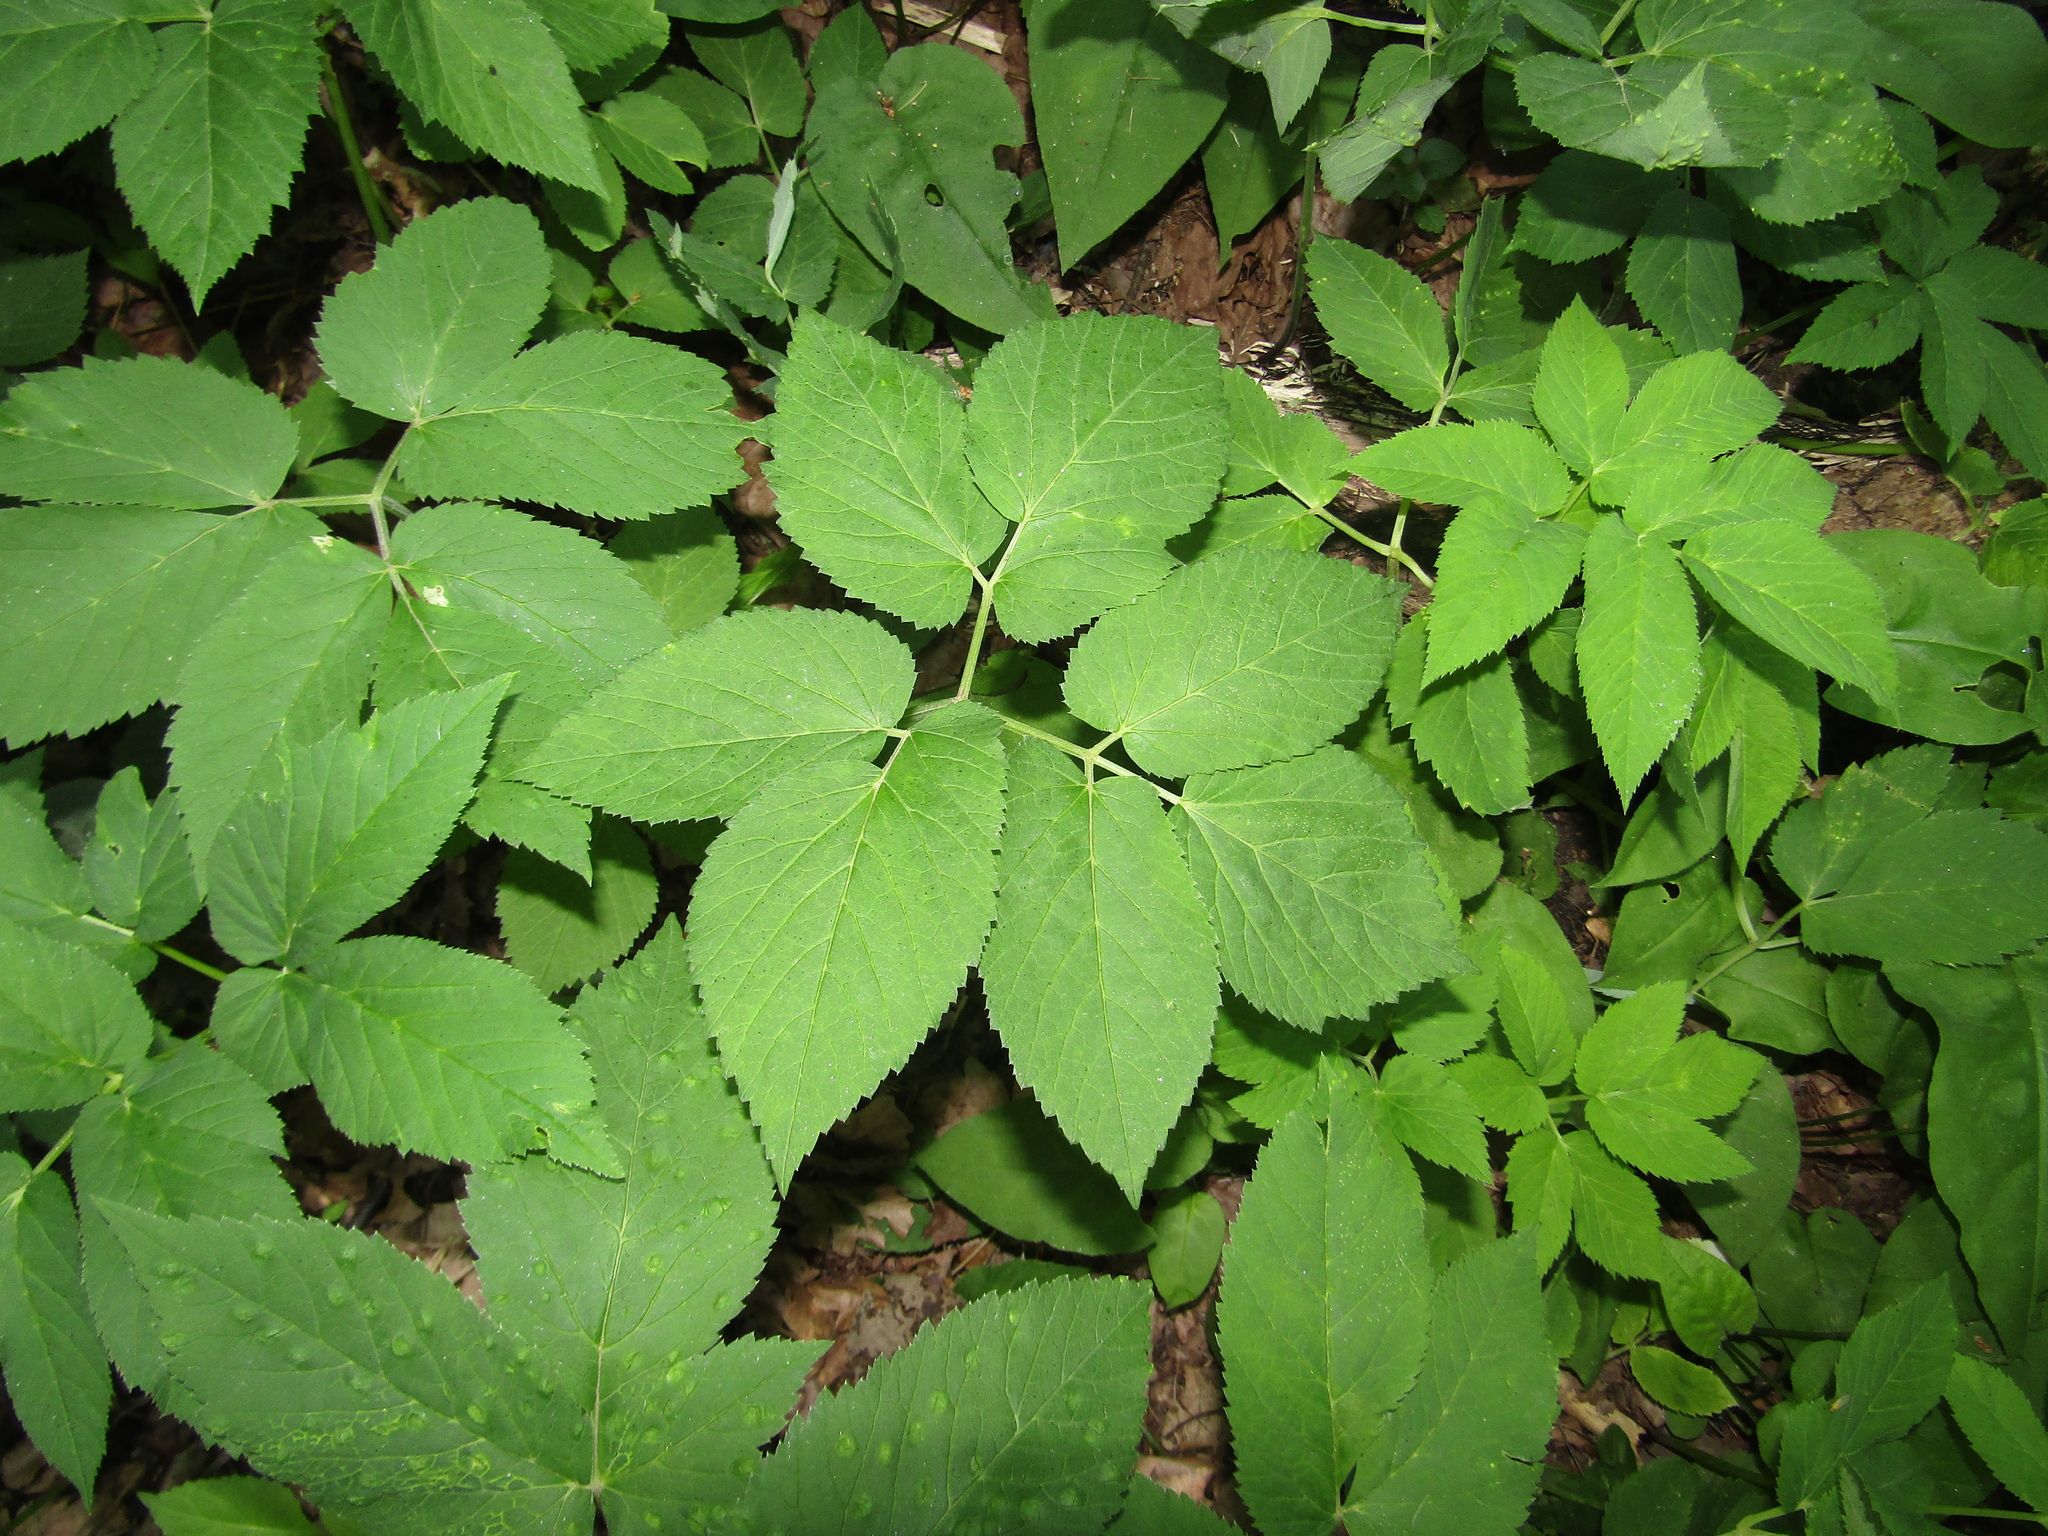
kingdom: Plantae
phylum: Tracheophyta
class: Magnoliopsida
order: Apiales
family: Apiaceae
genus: Aegopodium
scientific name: Aegopodium podagraria
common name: Ground-elder
